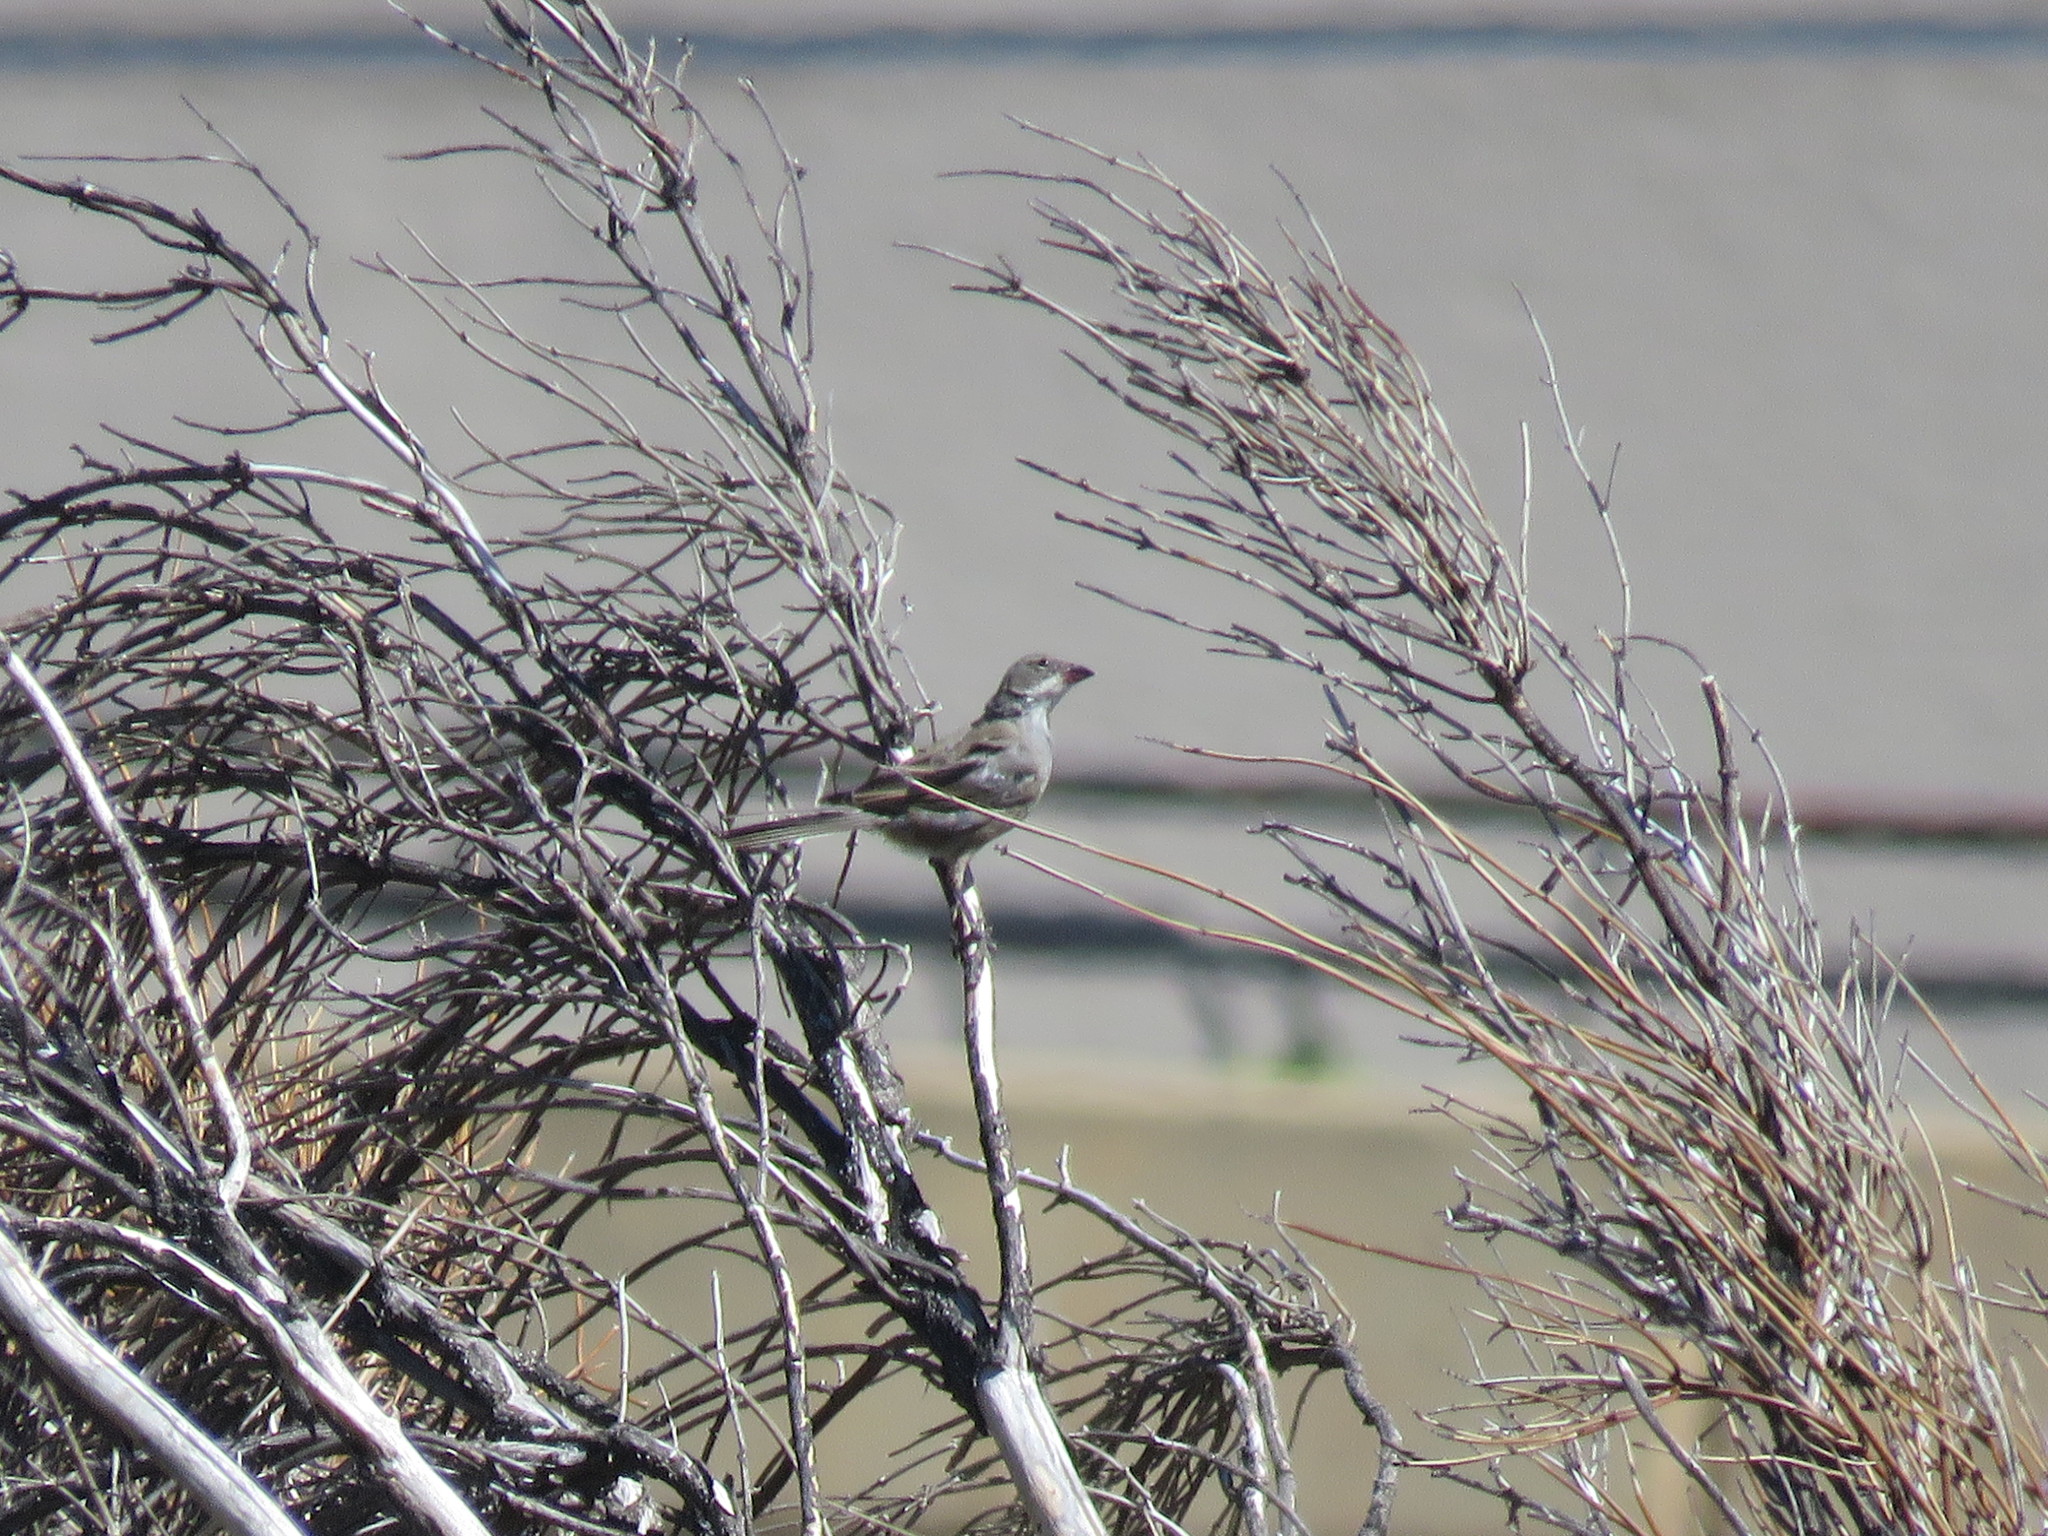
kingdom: Animalia
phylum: Chordata
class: Aves
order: Passeriformes
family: Thraupidae
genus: Diuca
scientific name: Diuca diuca
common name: Common diuca finch
